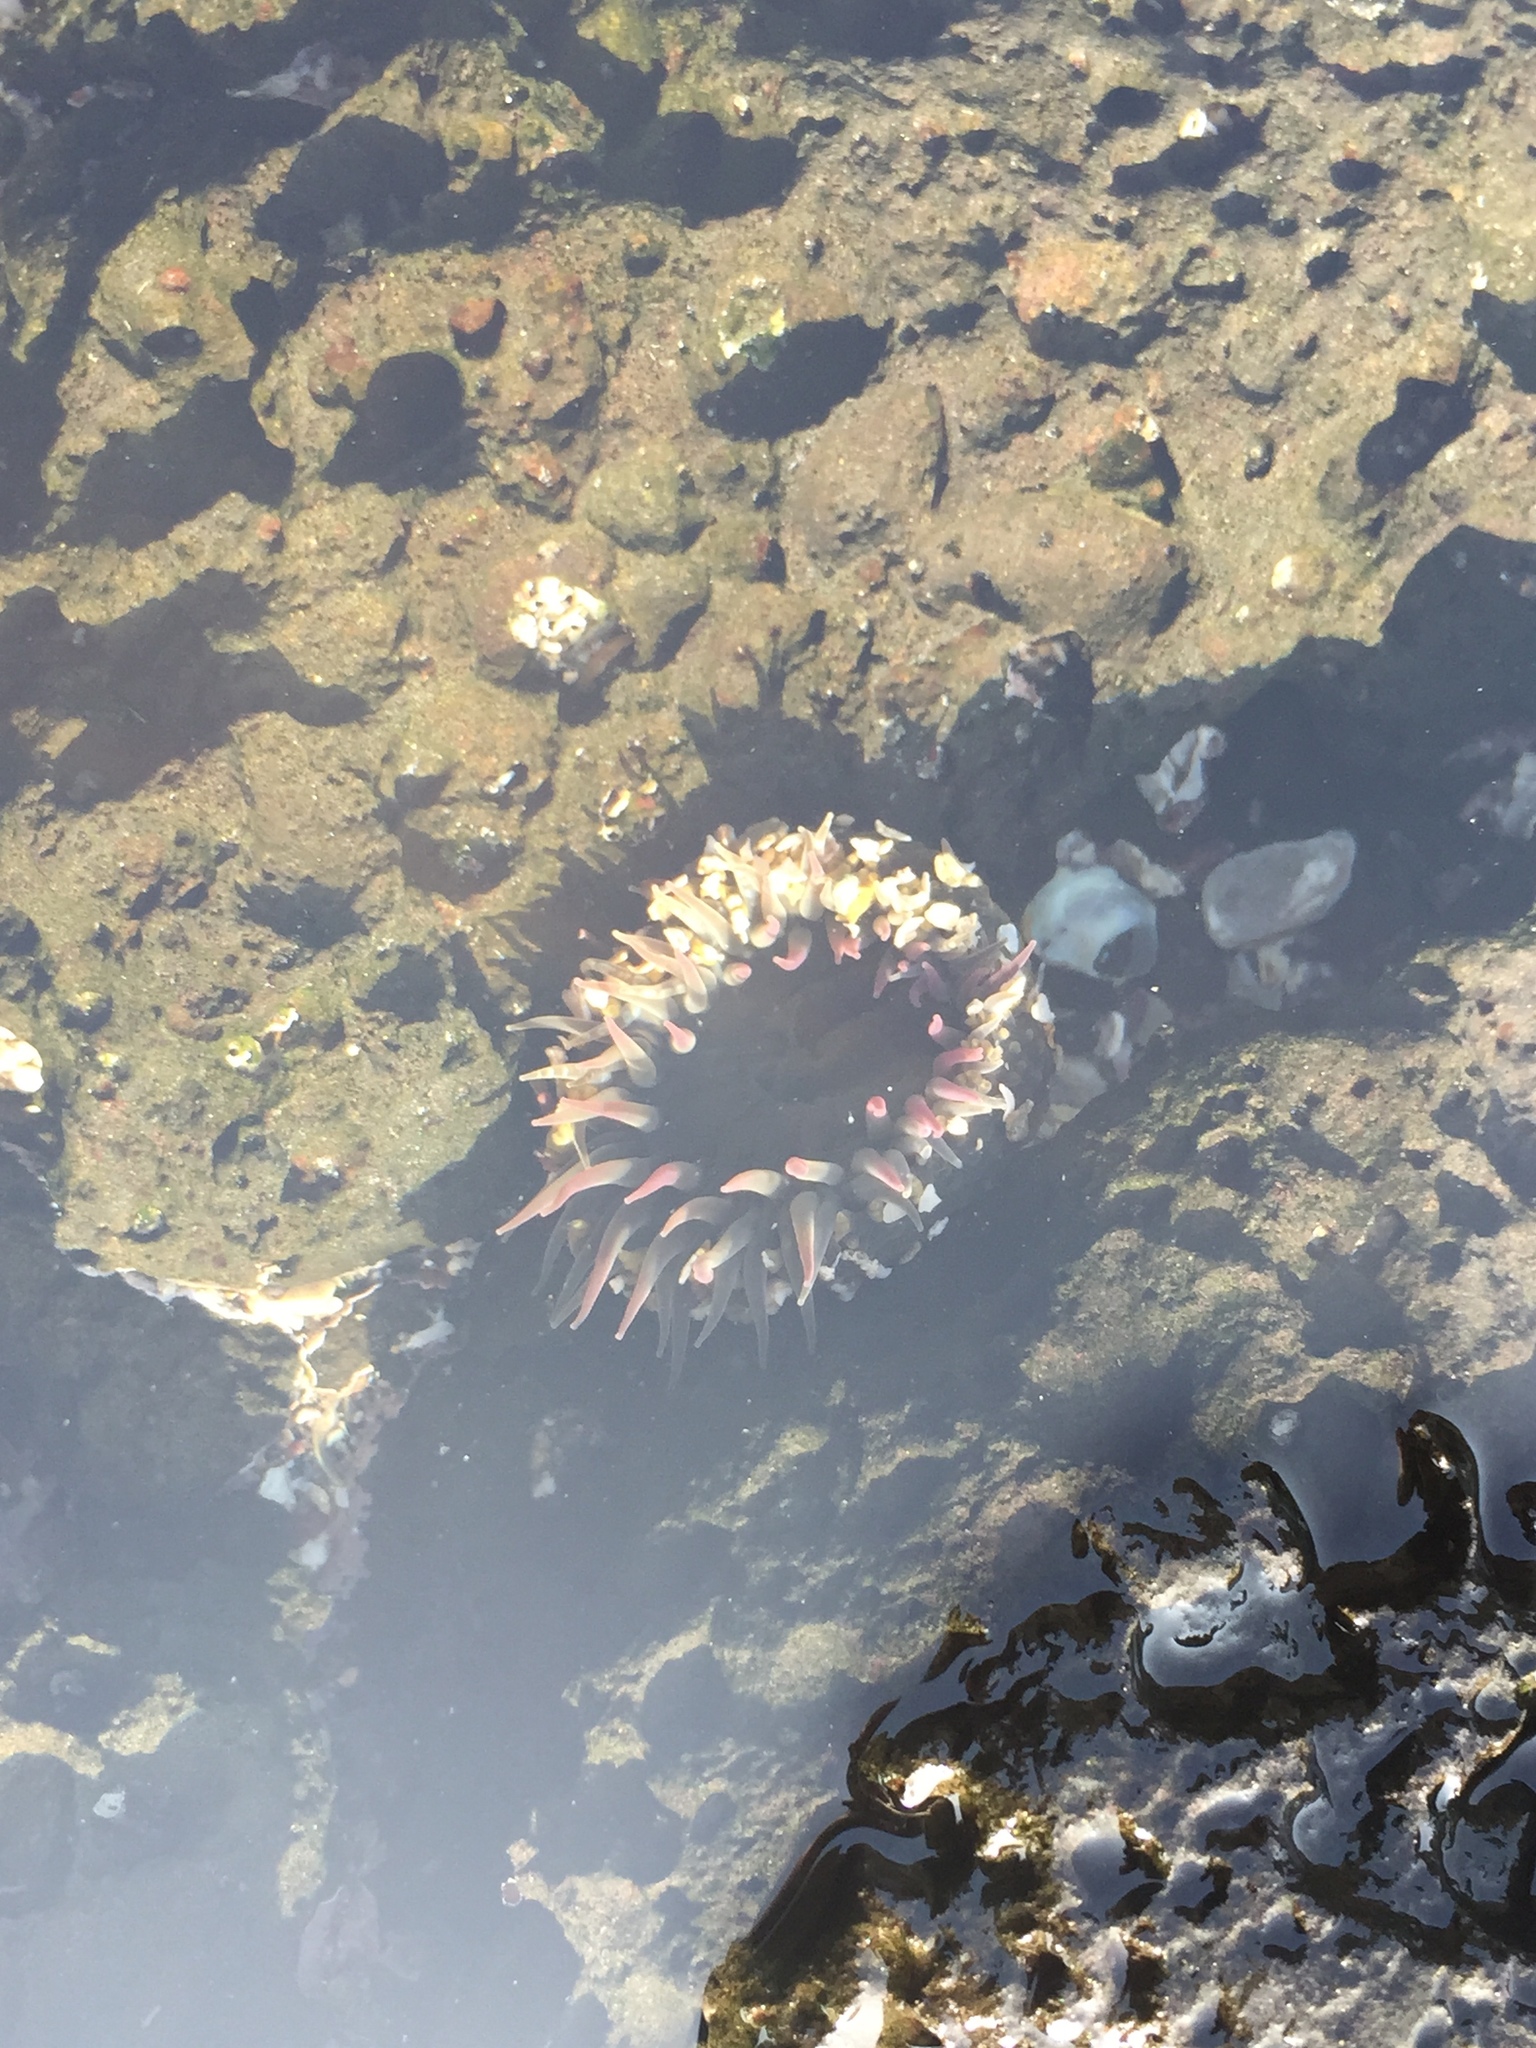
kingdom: Animalia
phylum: Cnidaria
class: Anthozoa
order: Actiniaria
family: Actiniidae
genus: Anthopleura
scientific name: Anthopleura inornata
